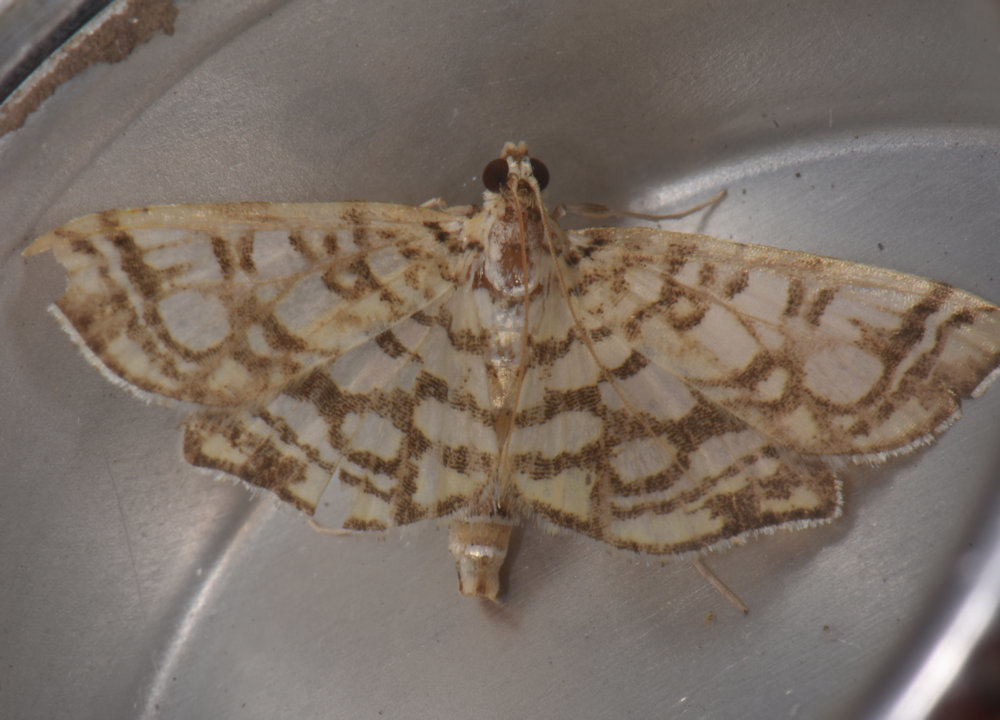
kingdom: Animalia
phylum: Arthropoda
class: Insecta
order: Lepidoptera
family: Crambidae
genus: Lygropia
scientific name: Lygropia rivulalis
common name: Bog lygropia moth
